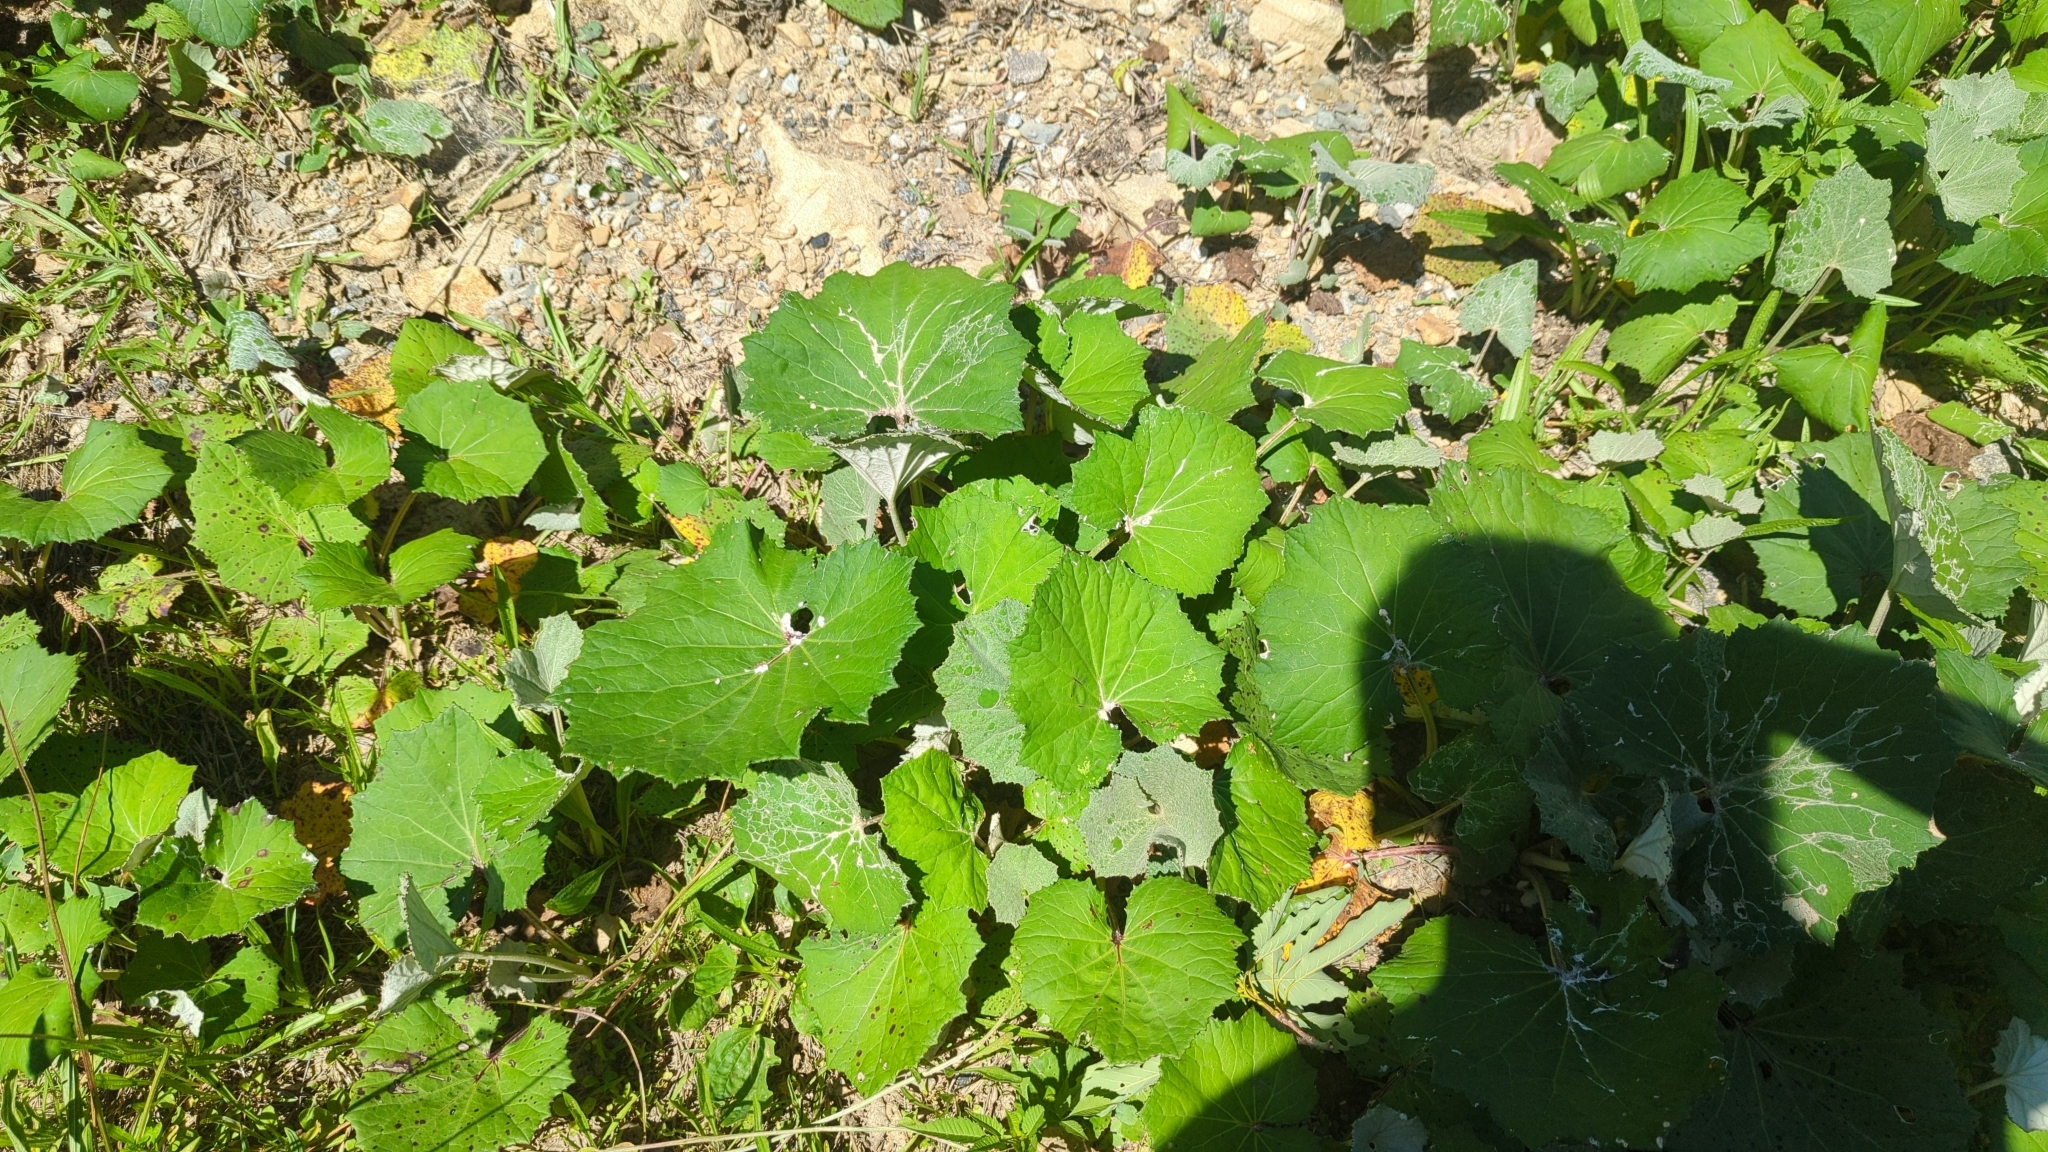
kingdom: Plantae
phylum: Tracheophyta
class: Magnoliopsida
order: Asterales
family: Asteraceae
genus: Tussilago
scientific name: Tussilago farfara
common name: Coltsfoot
